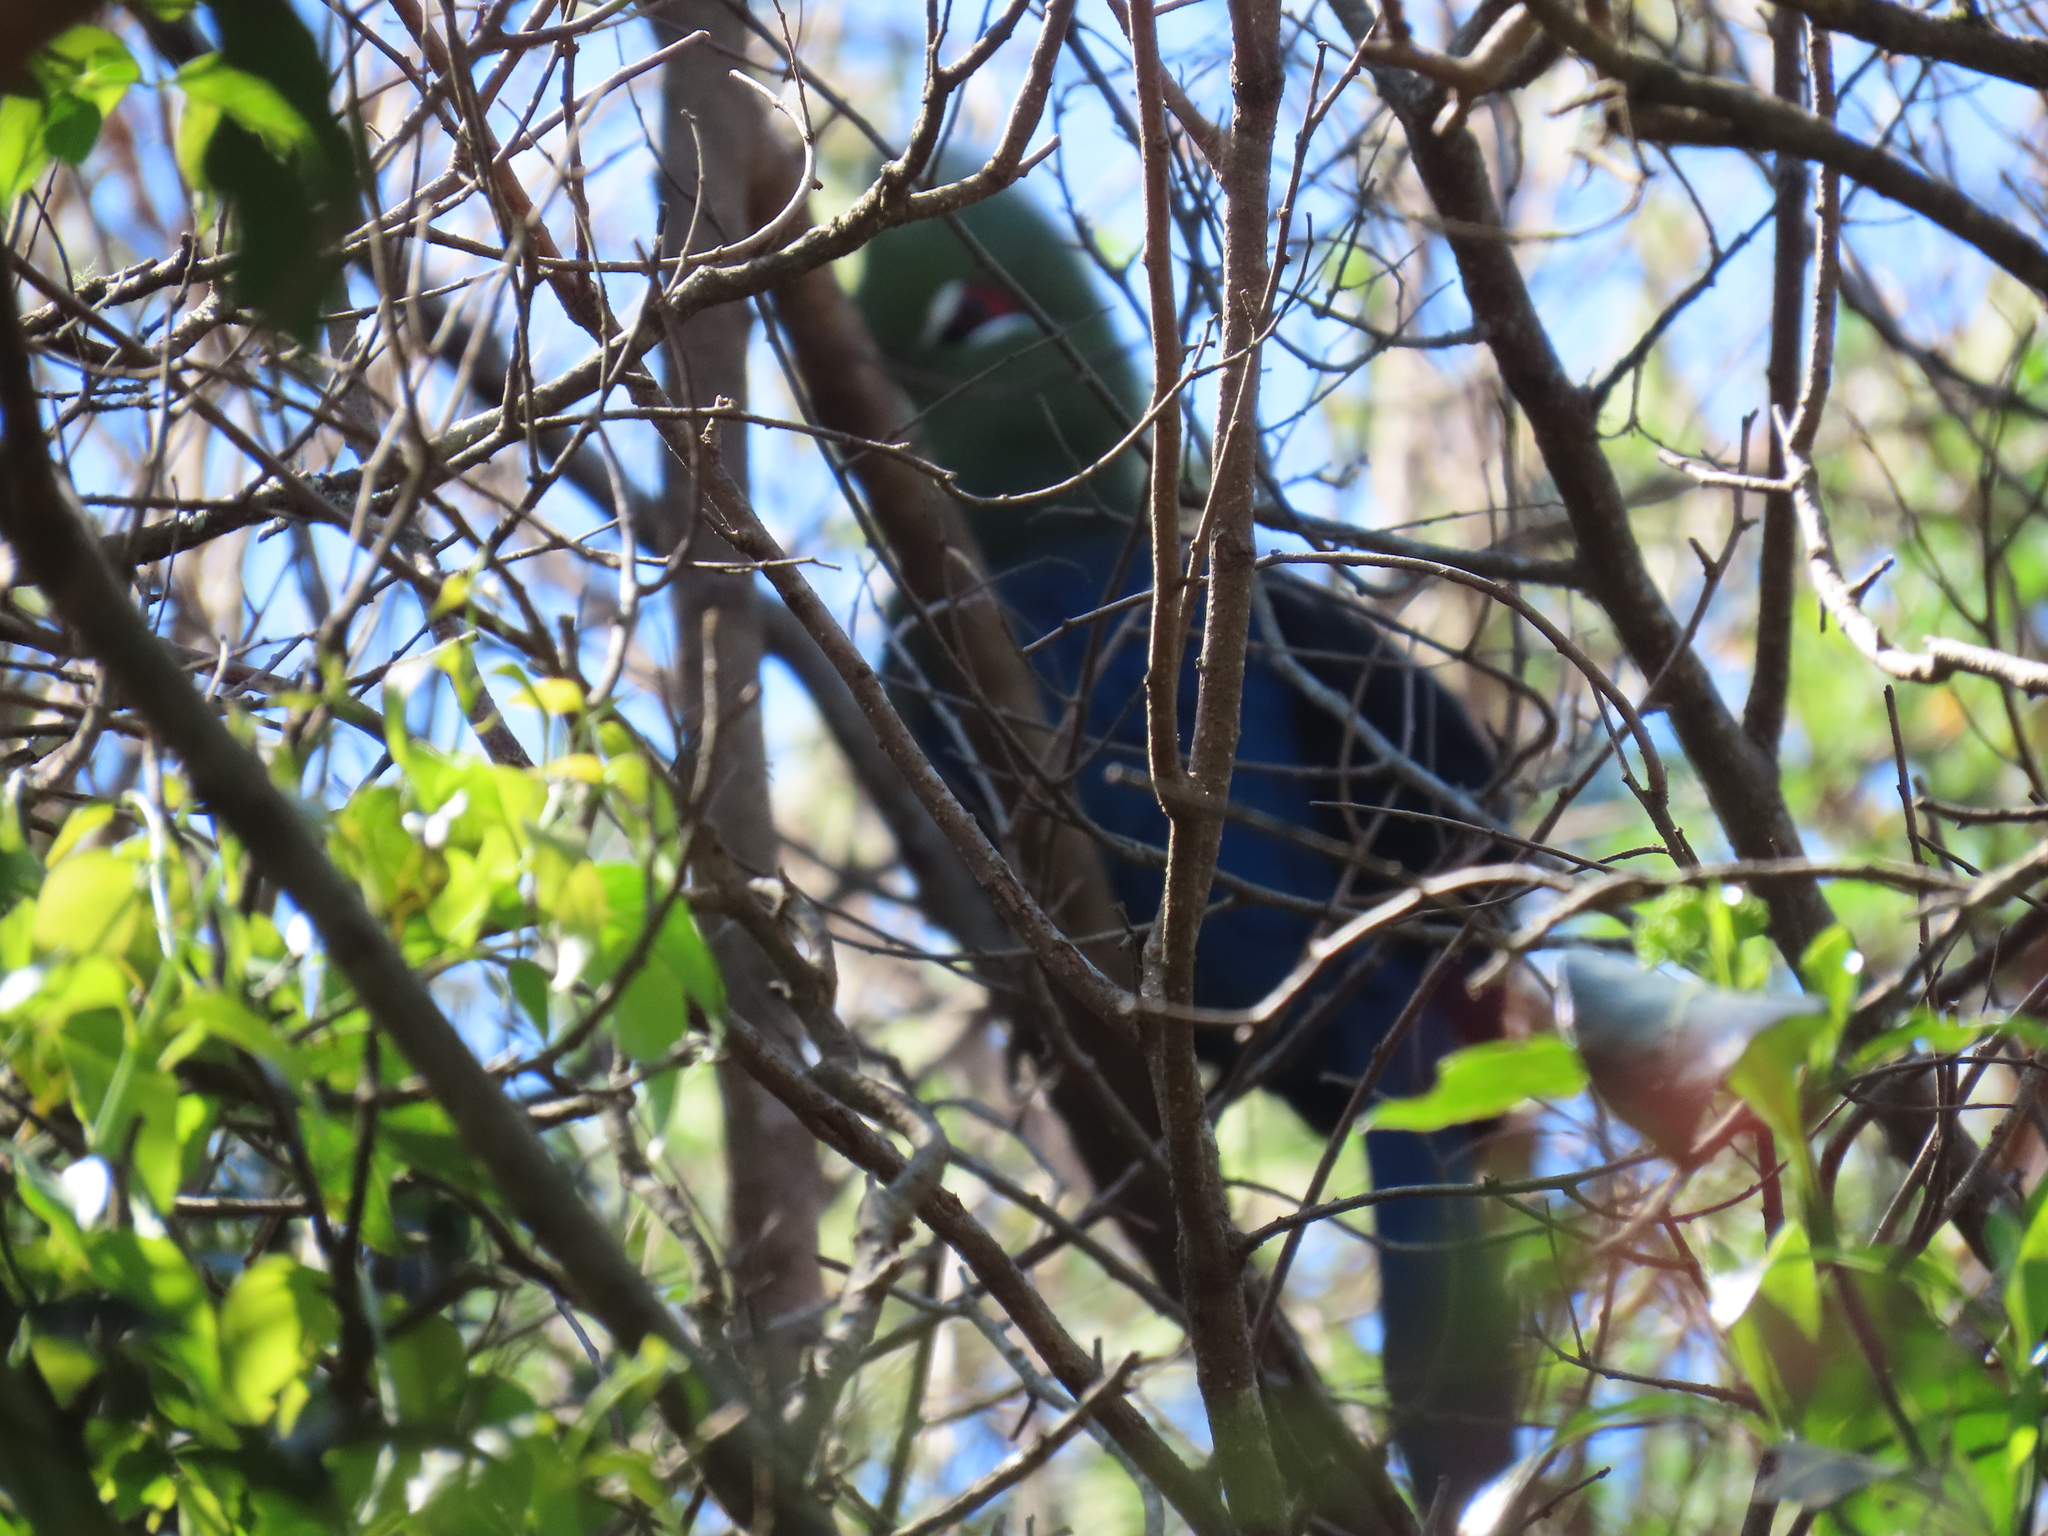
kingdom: Animalia
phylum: Chordata
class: Aves
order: Musophagiformes
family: Musophagidae
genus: Tauraco
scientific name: Tauraco corythaix
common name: Knysna turaco
